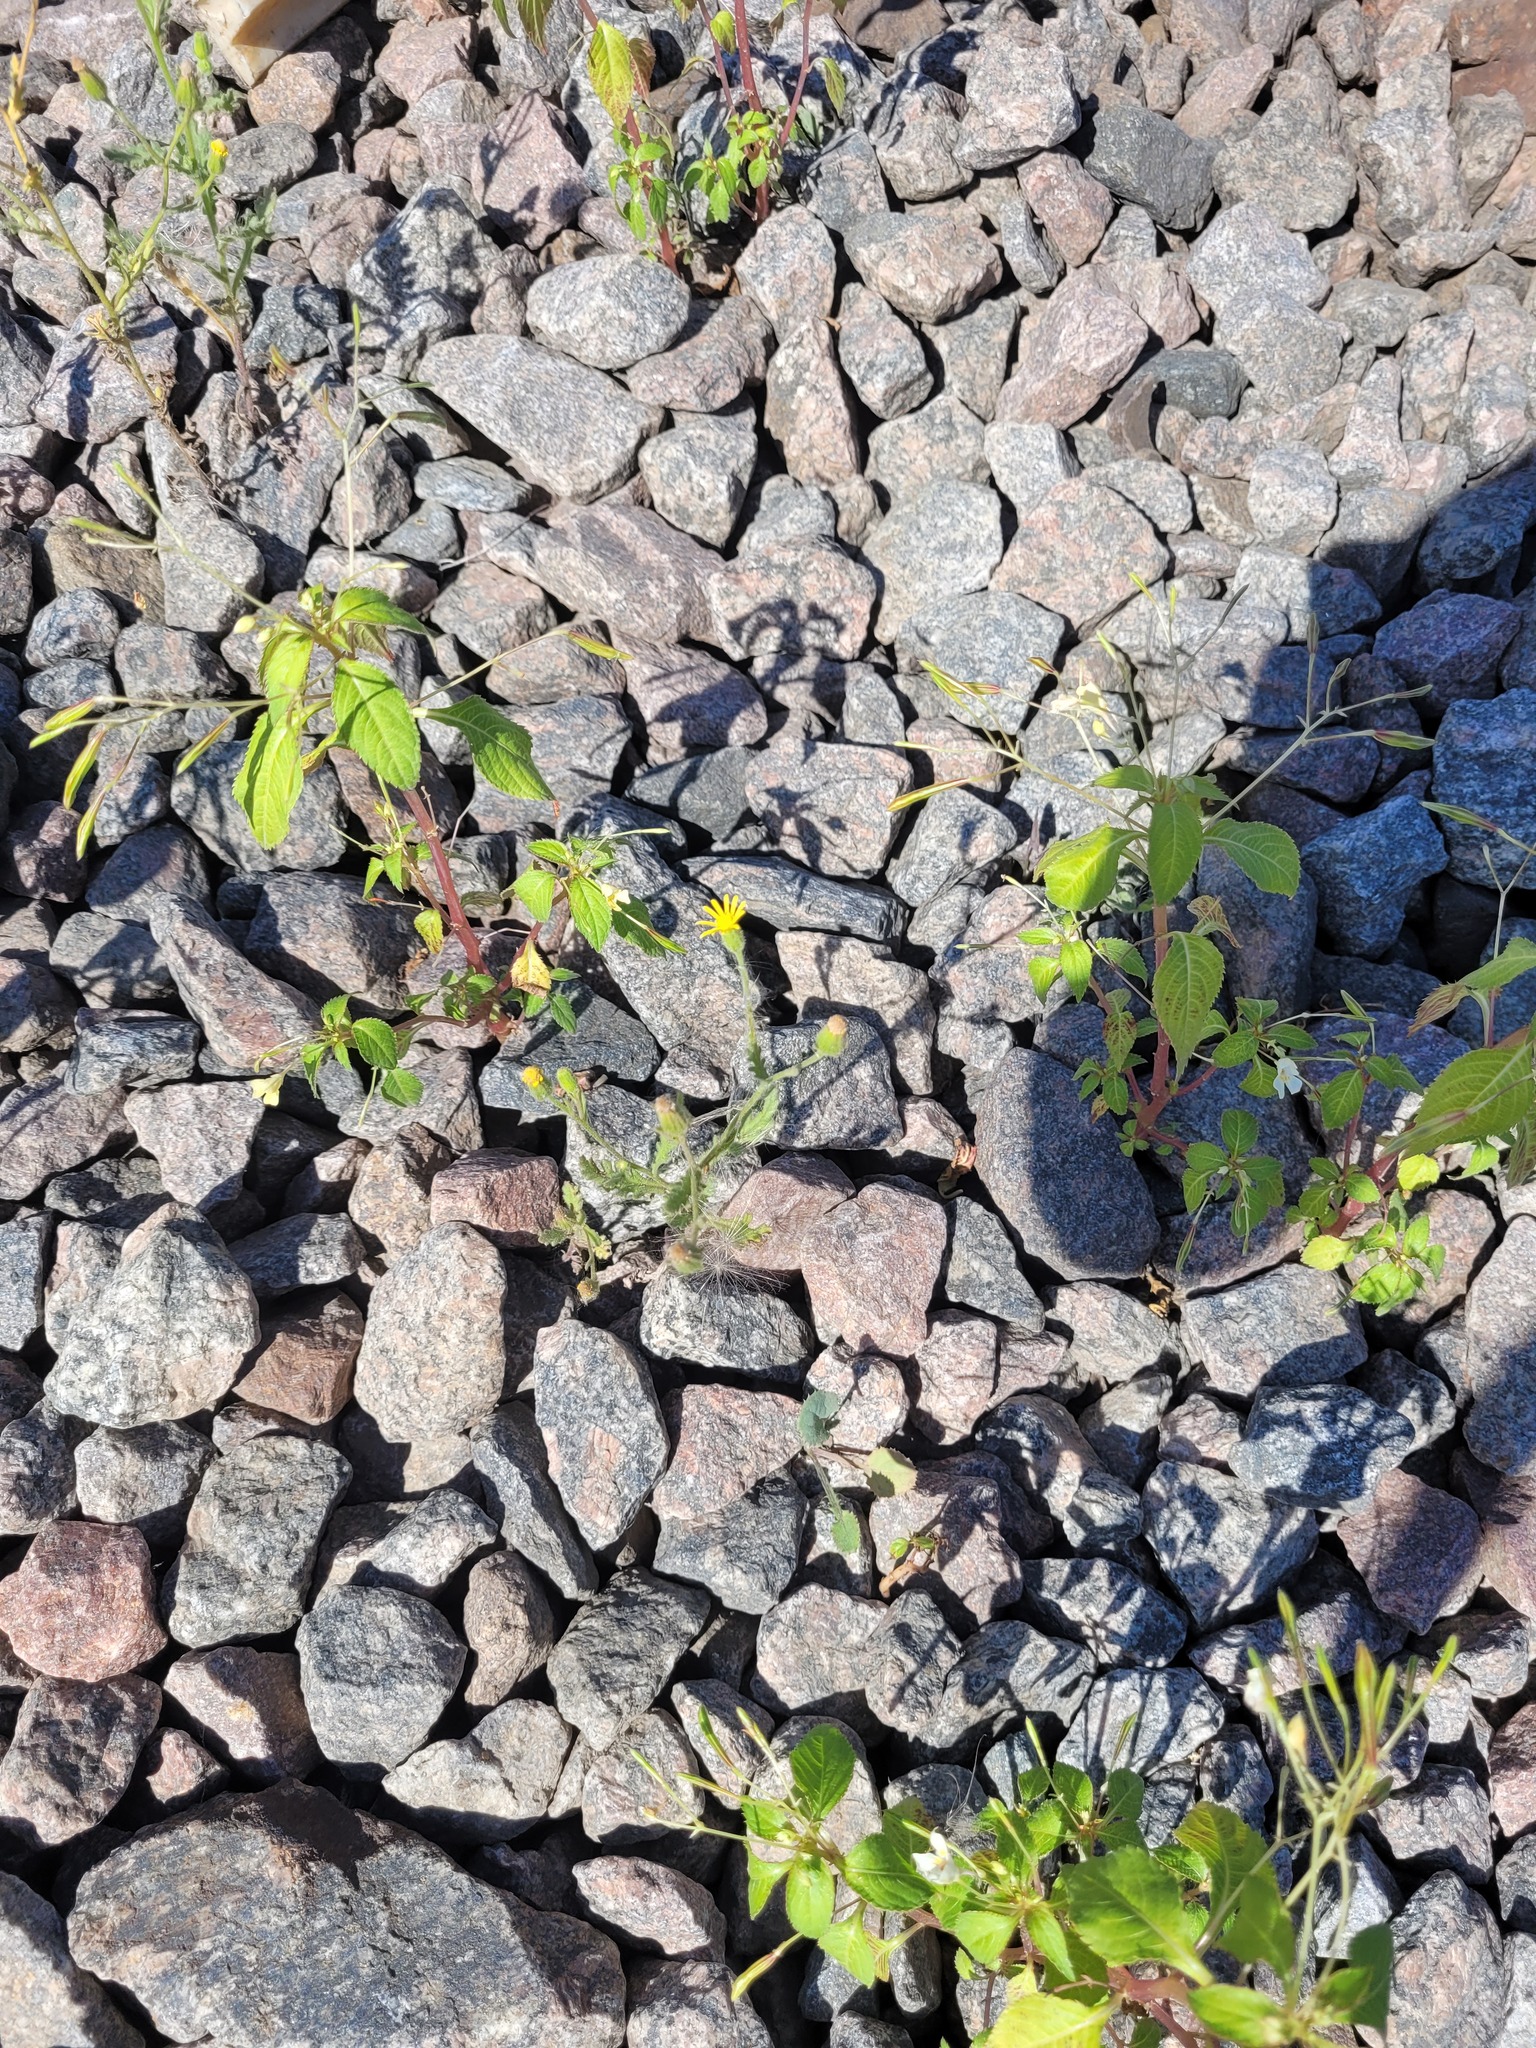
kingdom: Plantae
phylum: Tracheophyta
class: Magnoliopsida
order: Ericales
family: Balsaminaceae
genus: Impatiens
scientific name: Impatiens parviflora
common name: Small balsam
